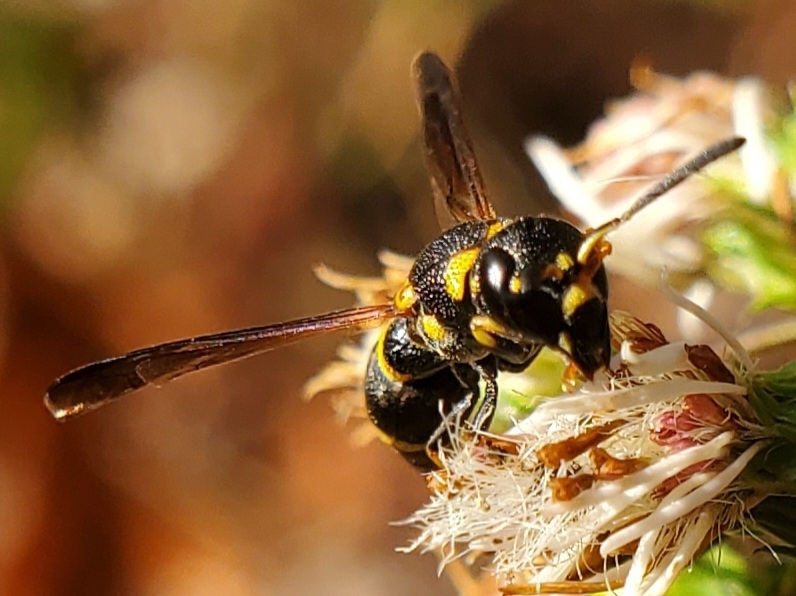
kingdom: Animalia
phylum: Arthropoda
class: Insecta
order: Hymenoptera
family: Vespidae
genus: Ancistrocerus
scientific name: Ancistrocerus adiabatus
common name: Bramble mason wasp
